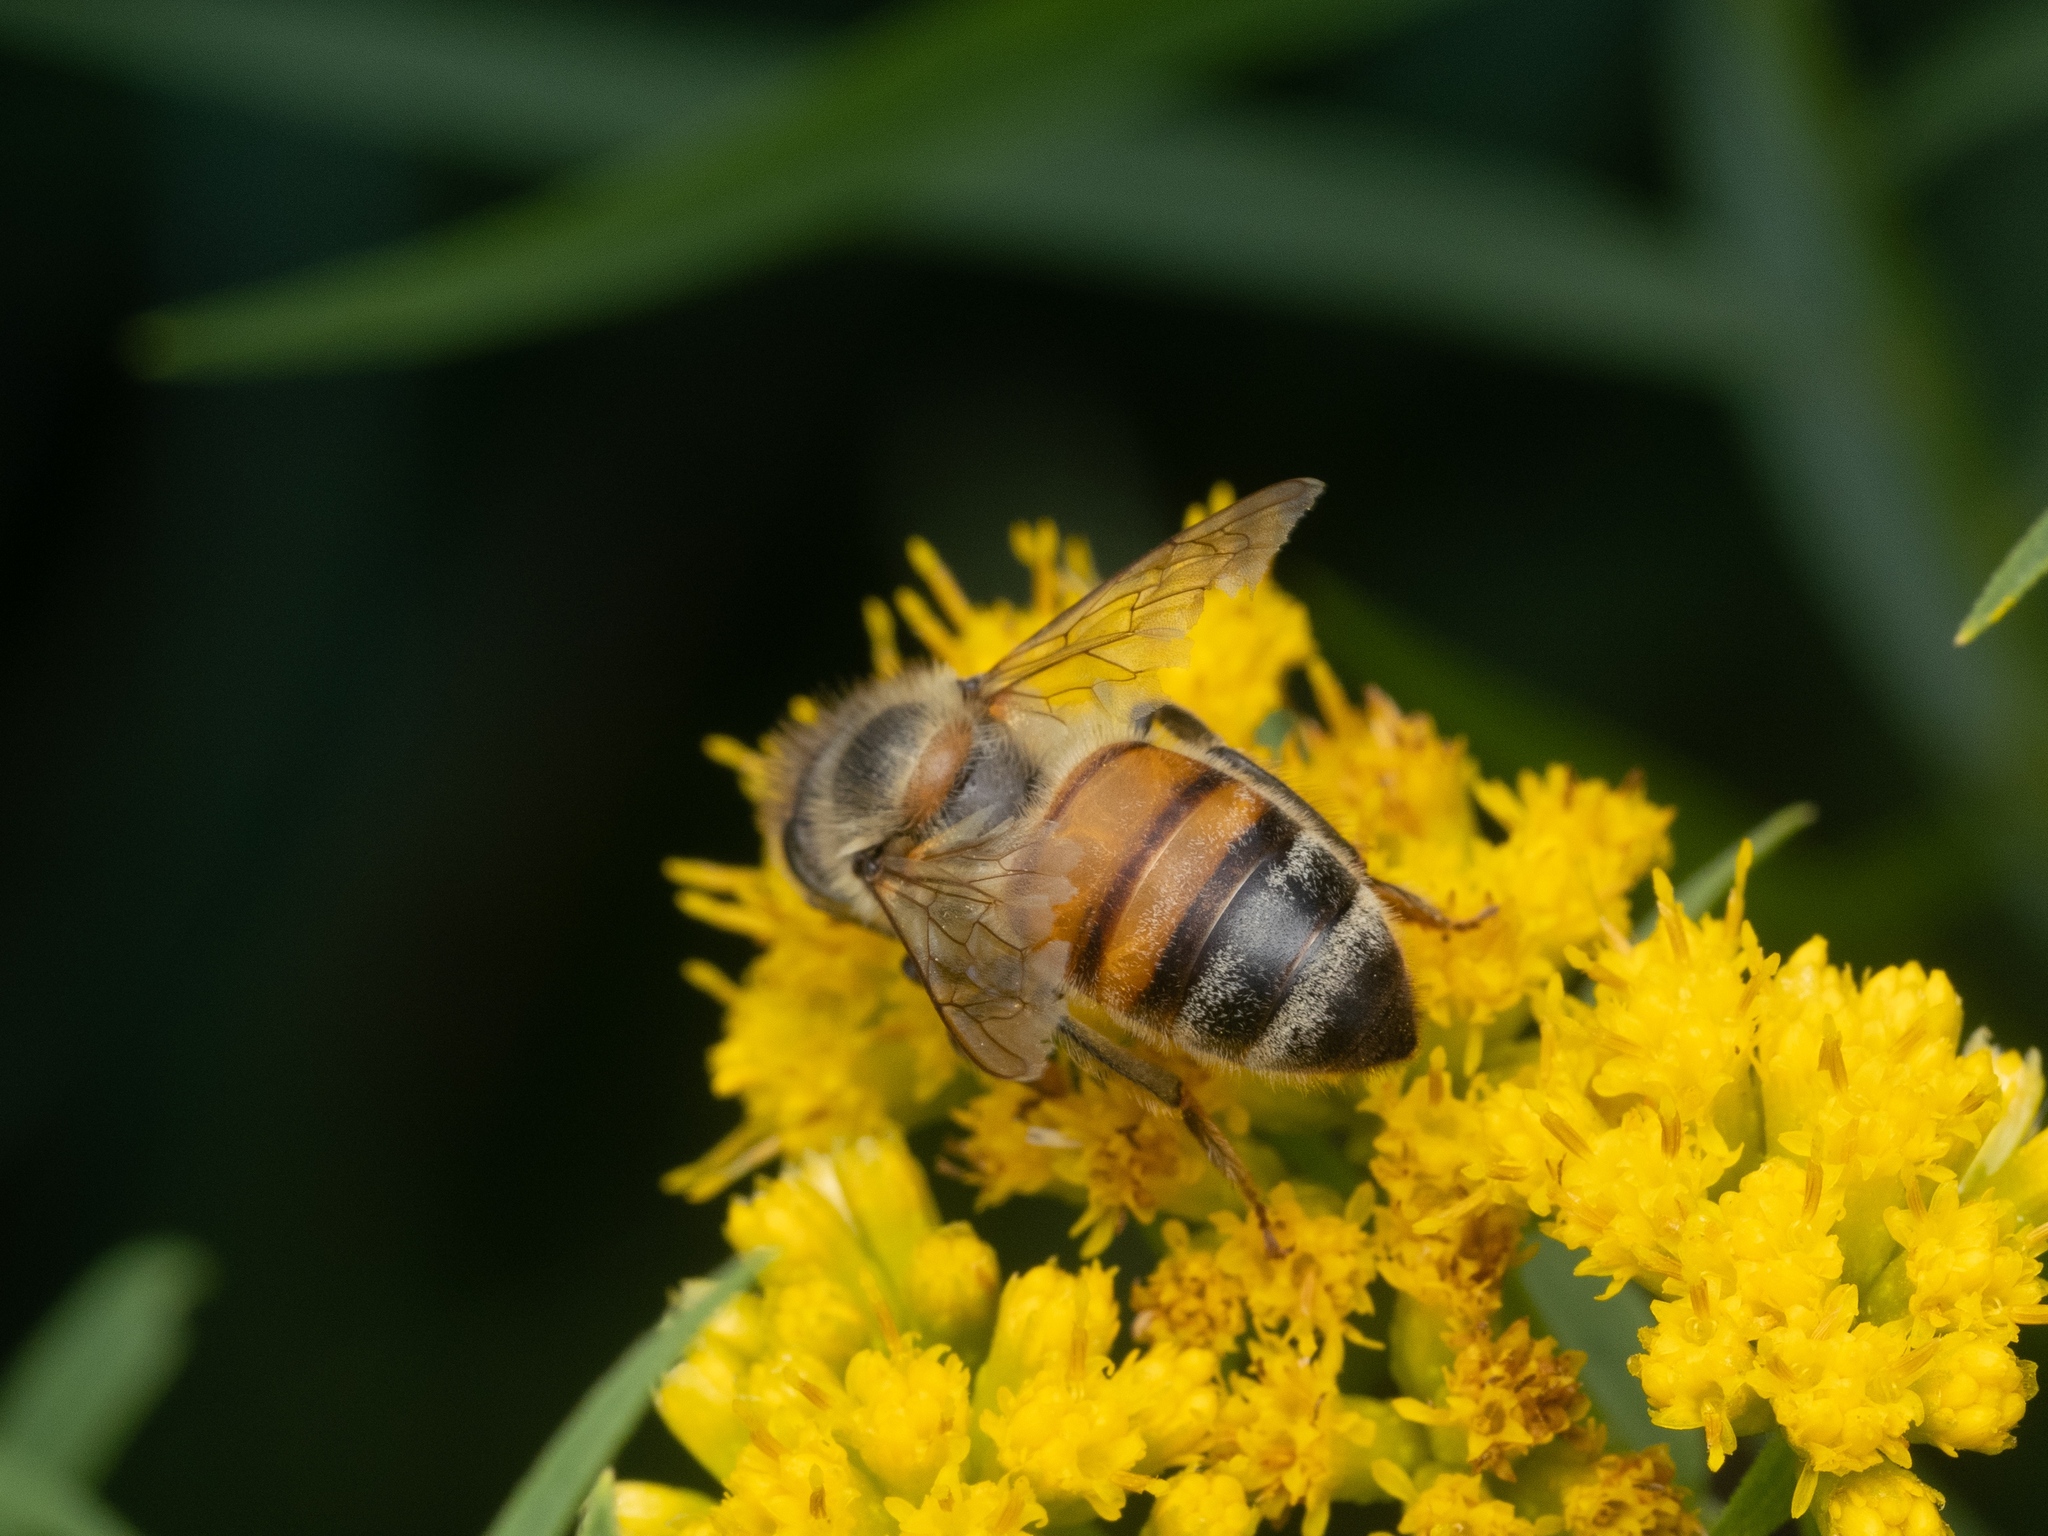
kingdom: Animalia
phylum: Arthropoda
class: Insecta
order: Hymenoptera
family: Apidae
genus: Apis
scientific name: Apis mellifera
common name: Honey bee
